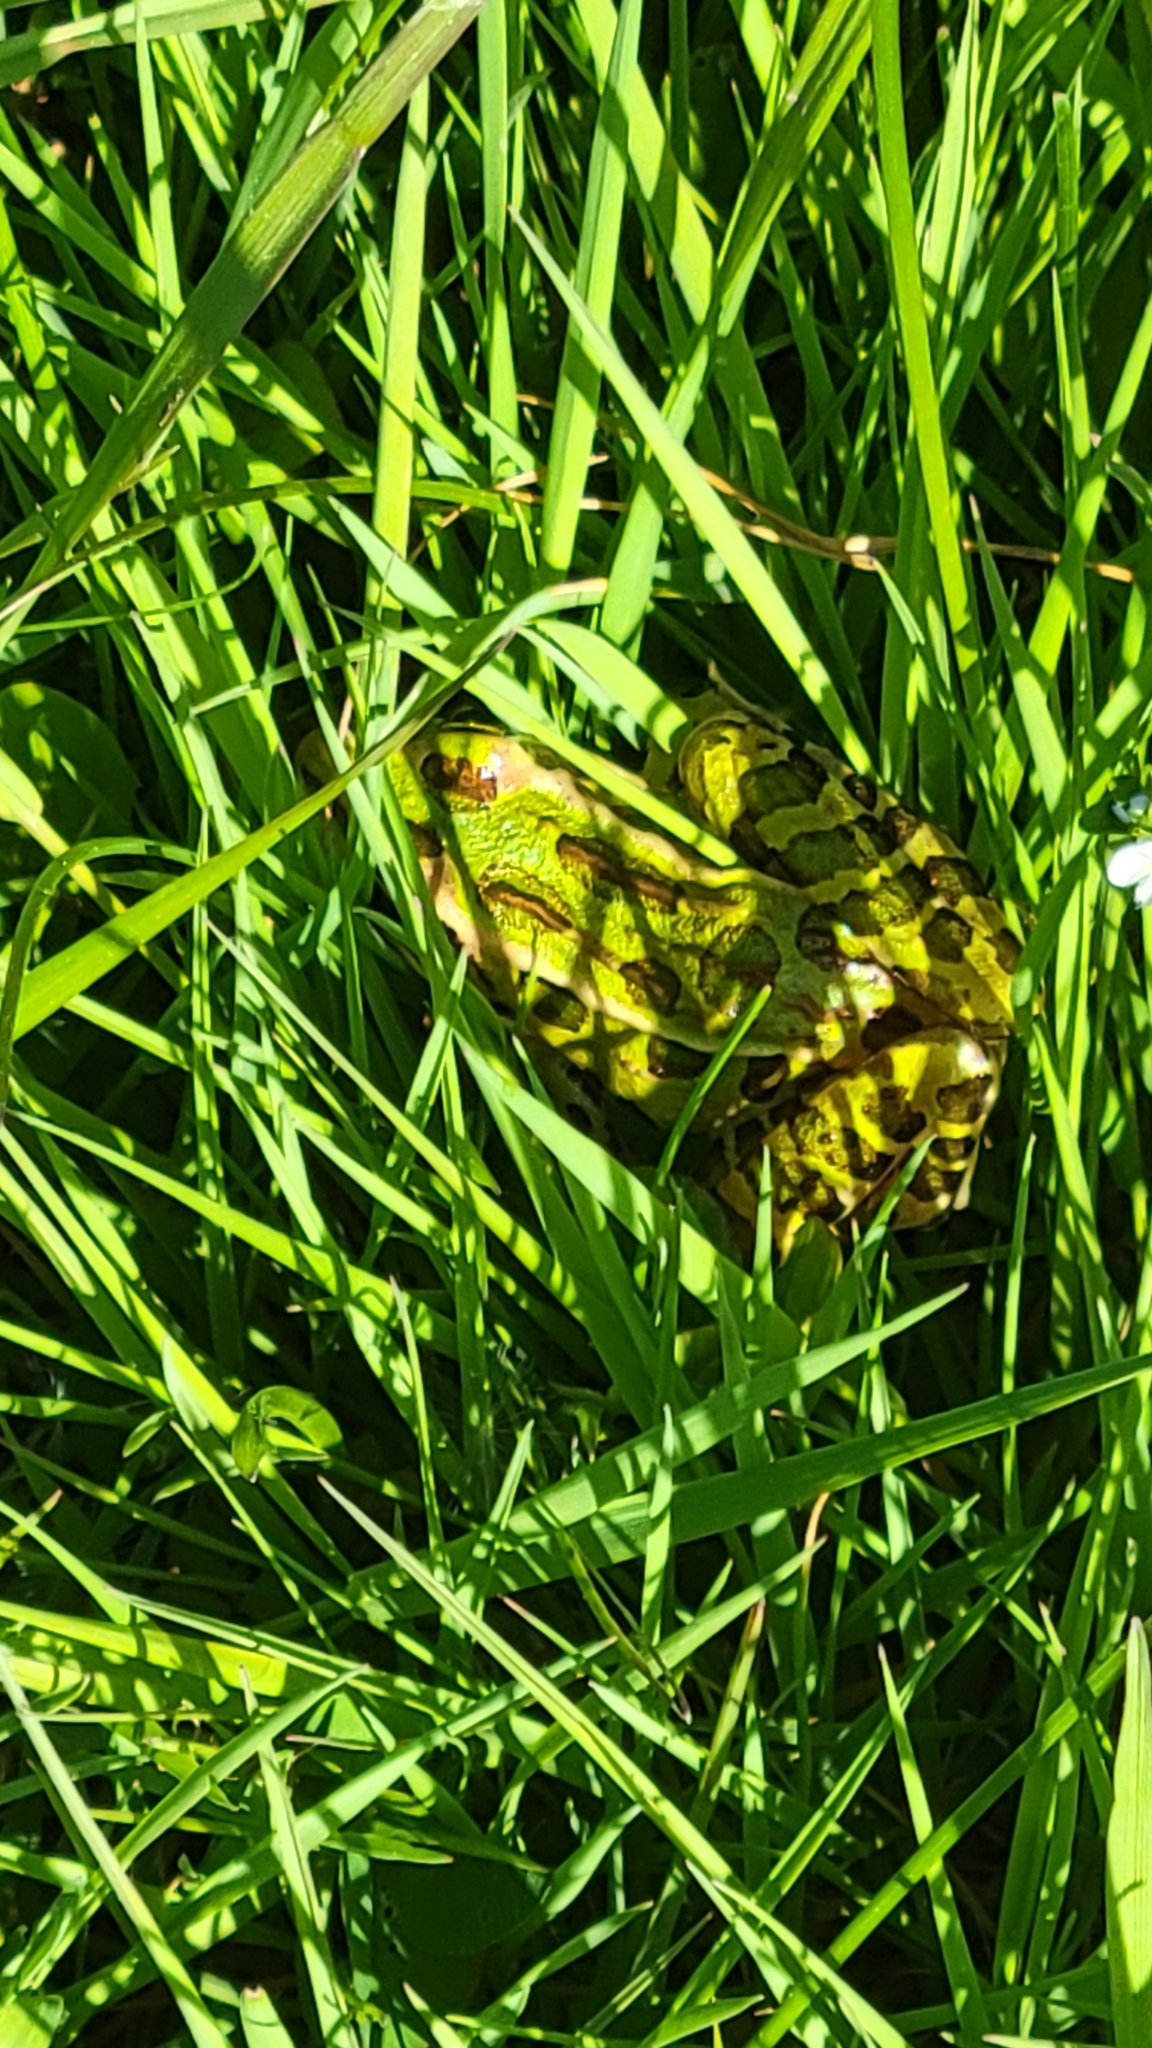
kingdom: Animalia
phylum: Chordata
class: Amphibia
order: Anura
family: Ranidae
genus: Lithobates
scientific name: Lithobates pipiens
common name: Northern leopard frog
